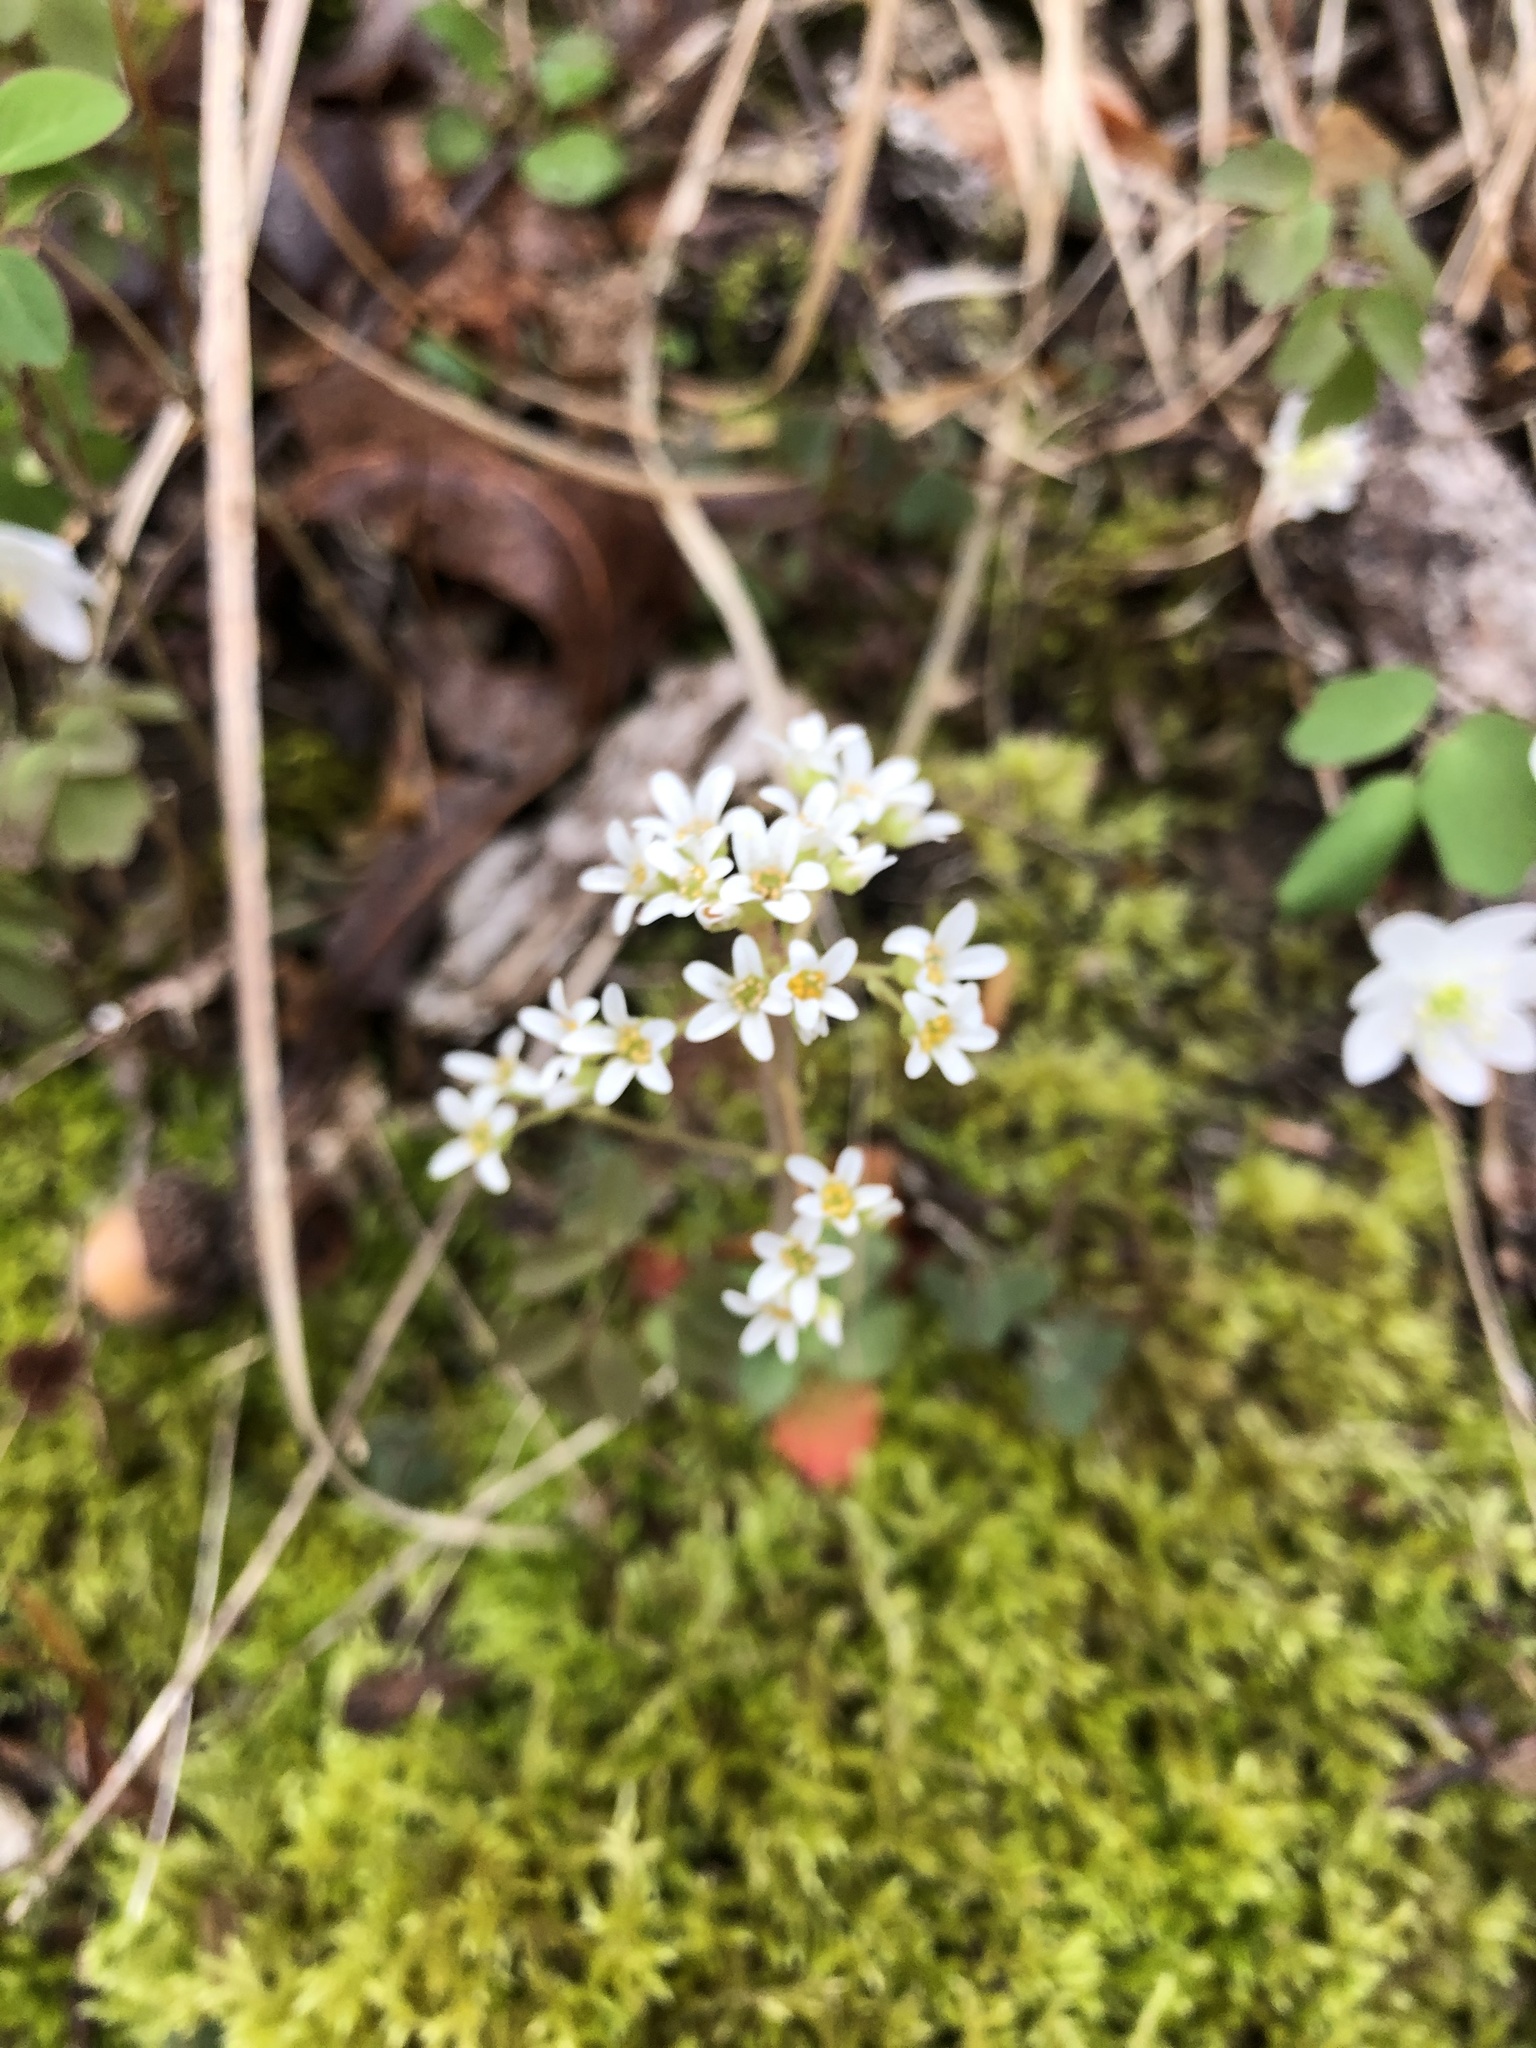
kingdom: Plantae
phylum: Tracheophyta
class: Magnoliopsida
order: Saxifragales
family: Saxifragaceae
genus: Micranthes
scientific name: Micranthes virginiensis
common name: Early saxifrage
